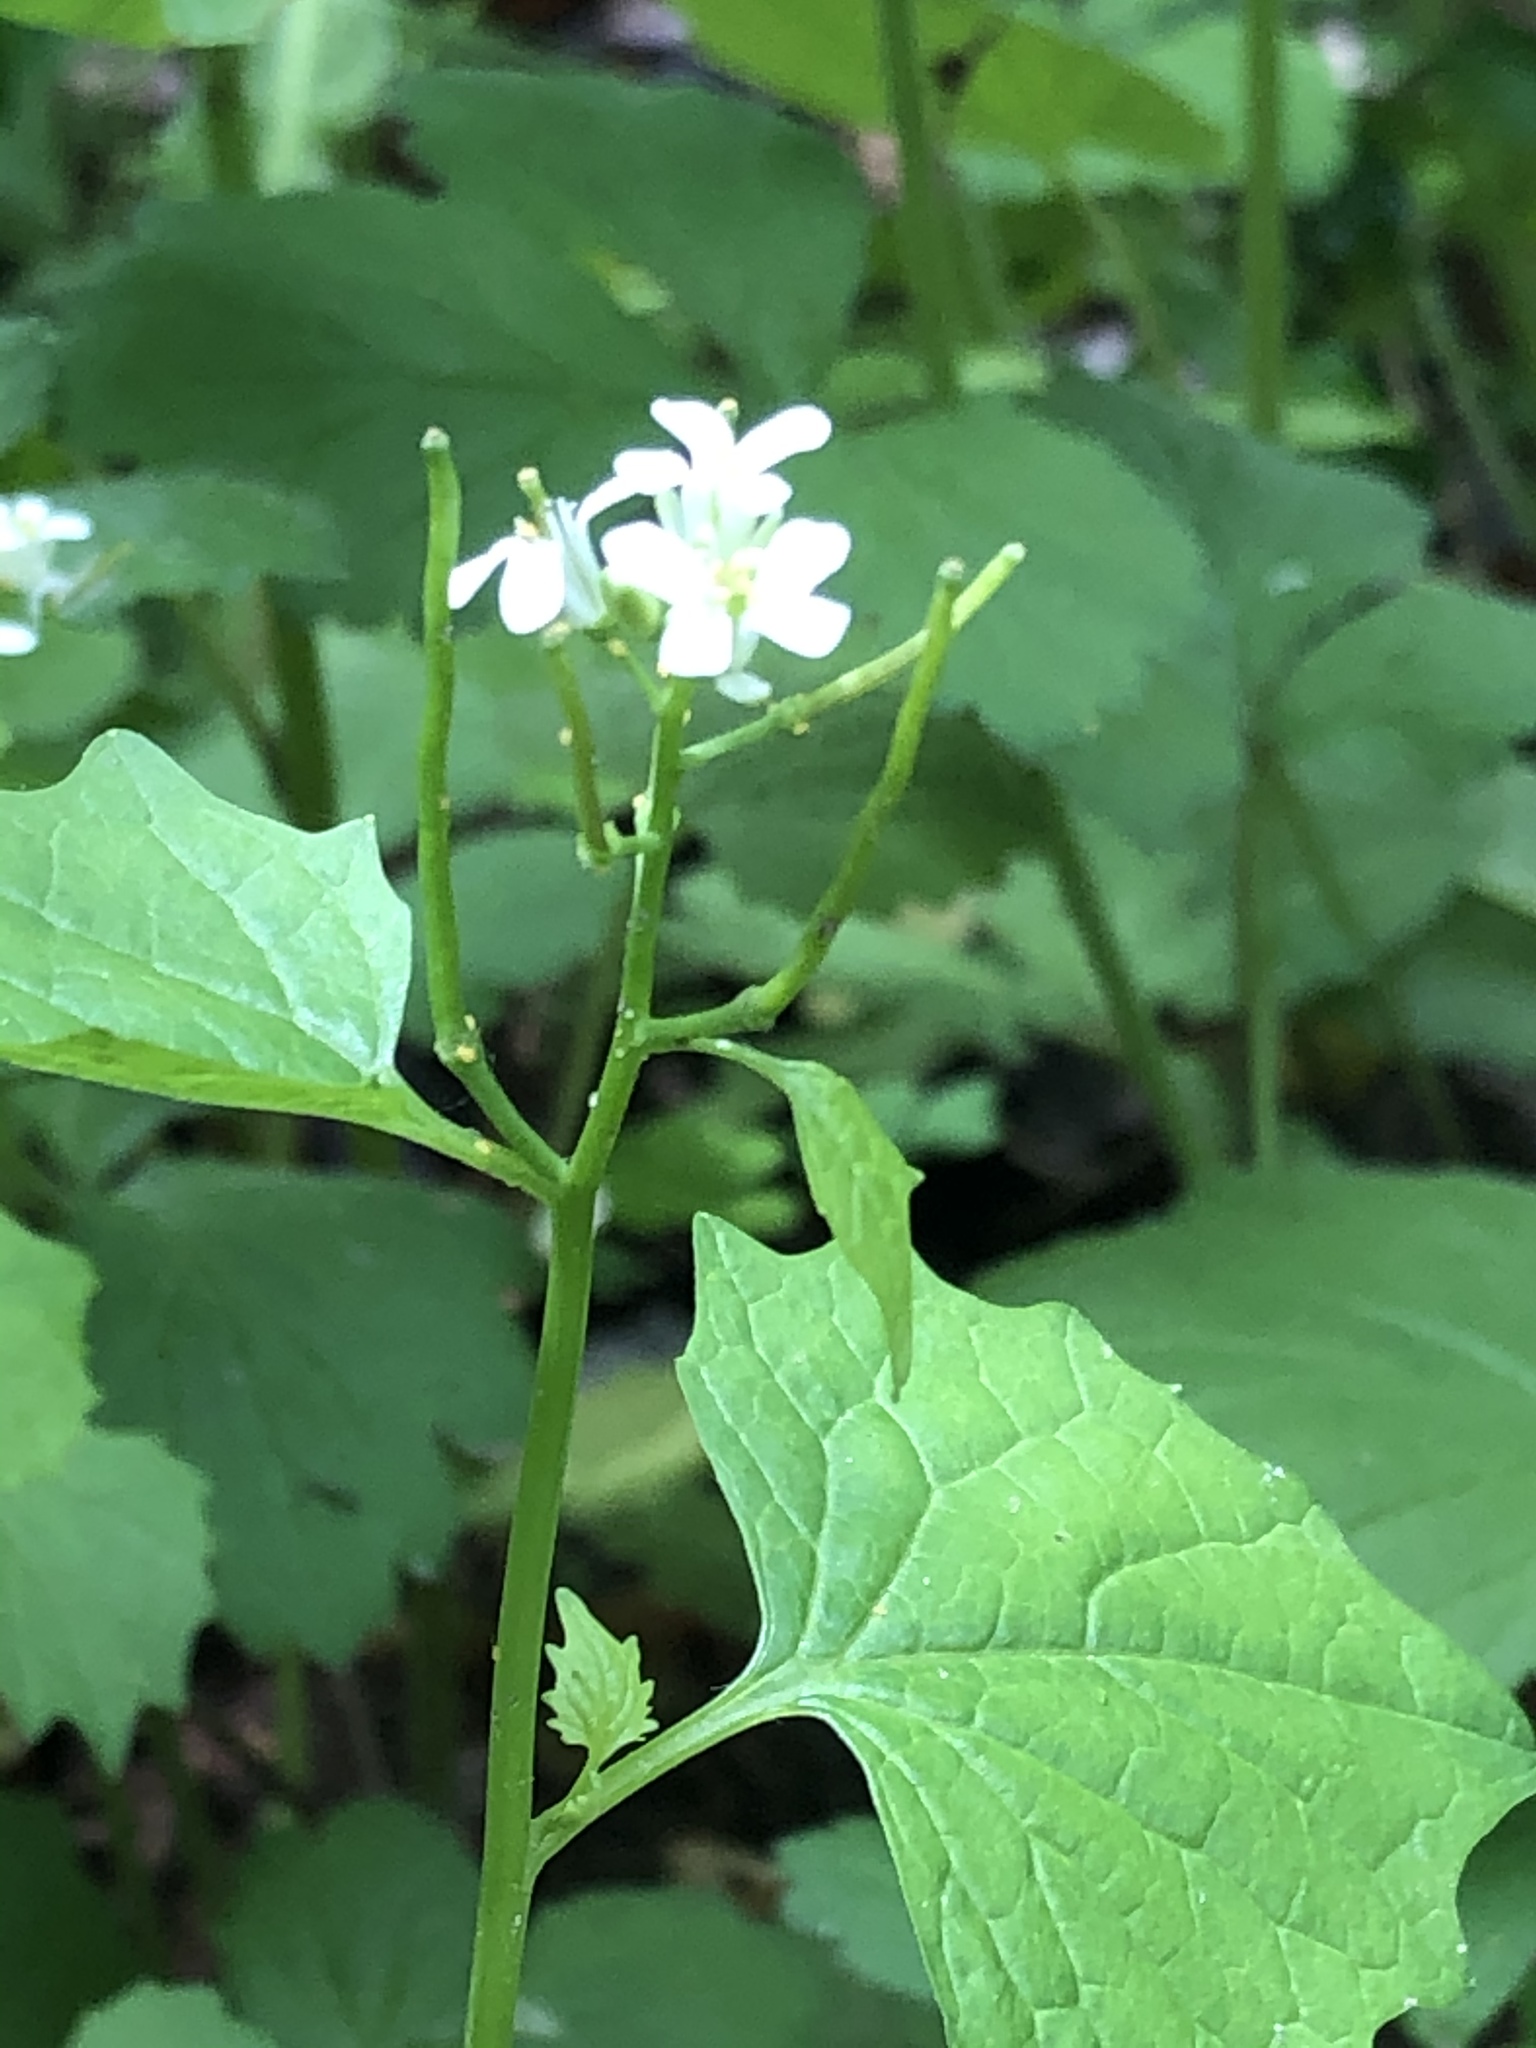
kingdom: Plantae
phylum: Tracheophyta
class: Magnoliopsida
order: Brassicales
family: Brassicaceae
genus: Alliaria
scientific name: Alliaria petiolata
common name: Garlic mustard
